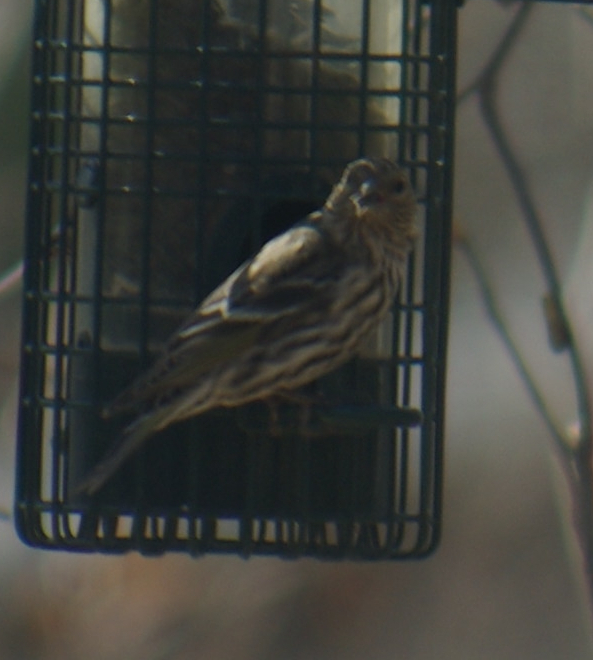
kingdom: Animalia
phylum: Chordata
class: Aves
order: Passeriformes
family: Fringillidae
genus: Spinus
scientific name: Spinus pinus
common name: Pine siskin
